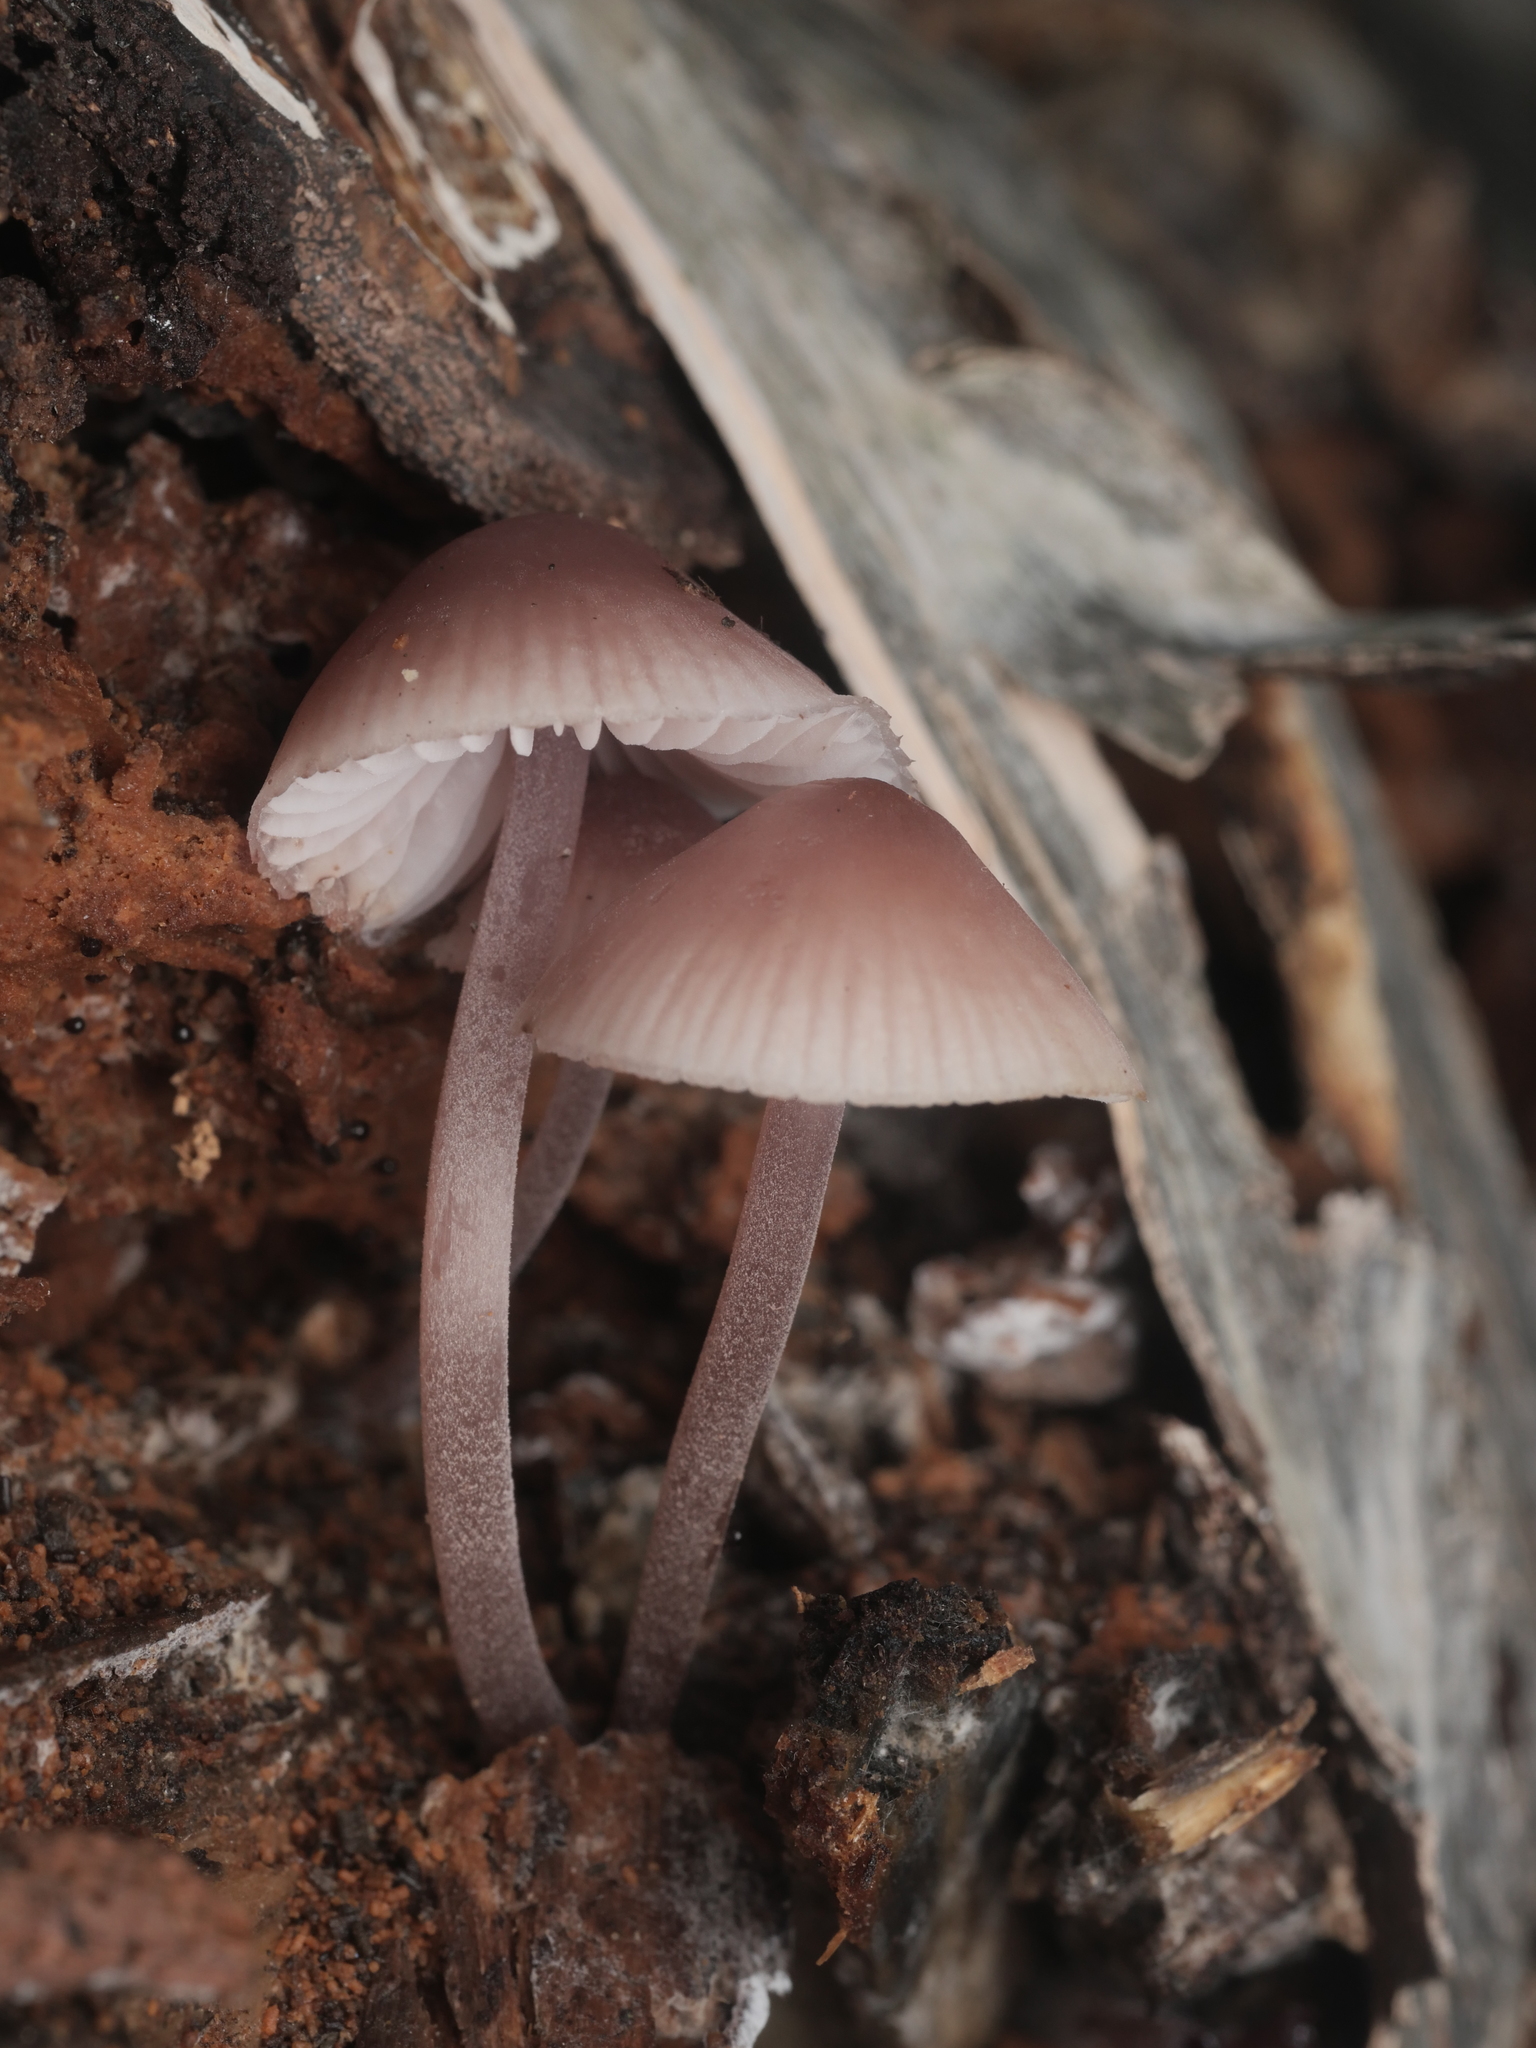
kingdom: Fungi
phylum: Basidiomycota
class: Agaricomycetes
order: Agaricales
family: Mycenaceae
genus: Mycena
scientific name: Mycena haematopus
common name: Burgundydrop bonnet
